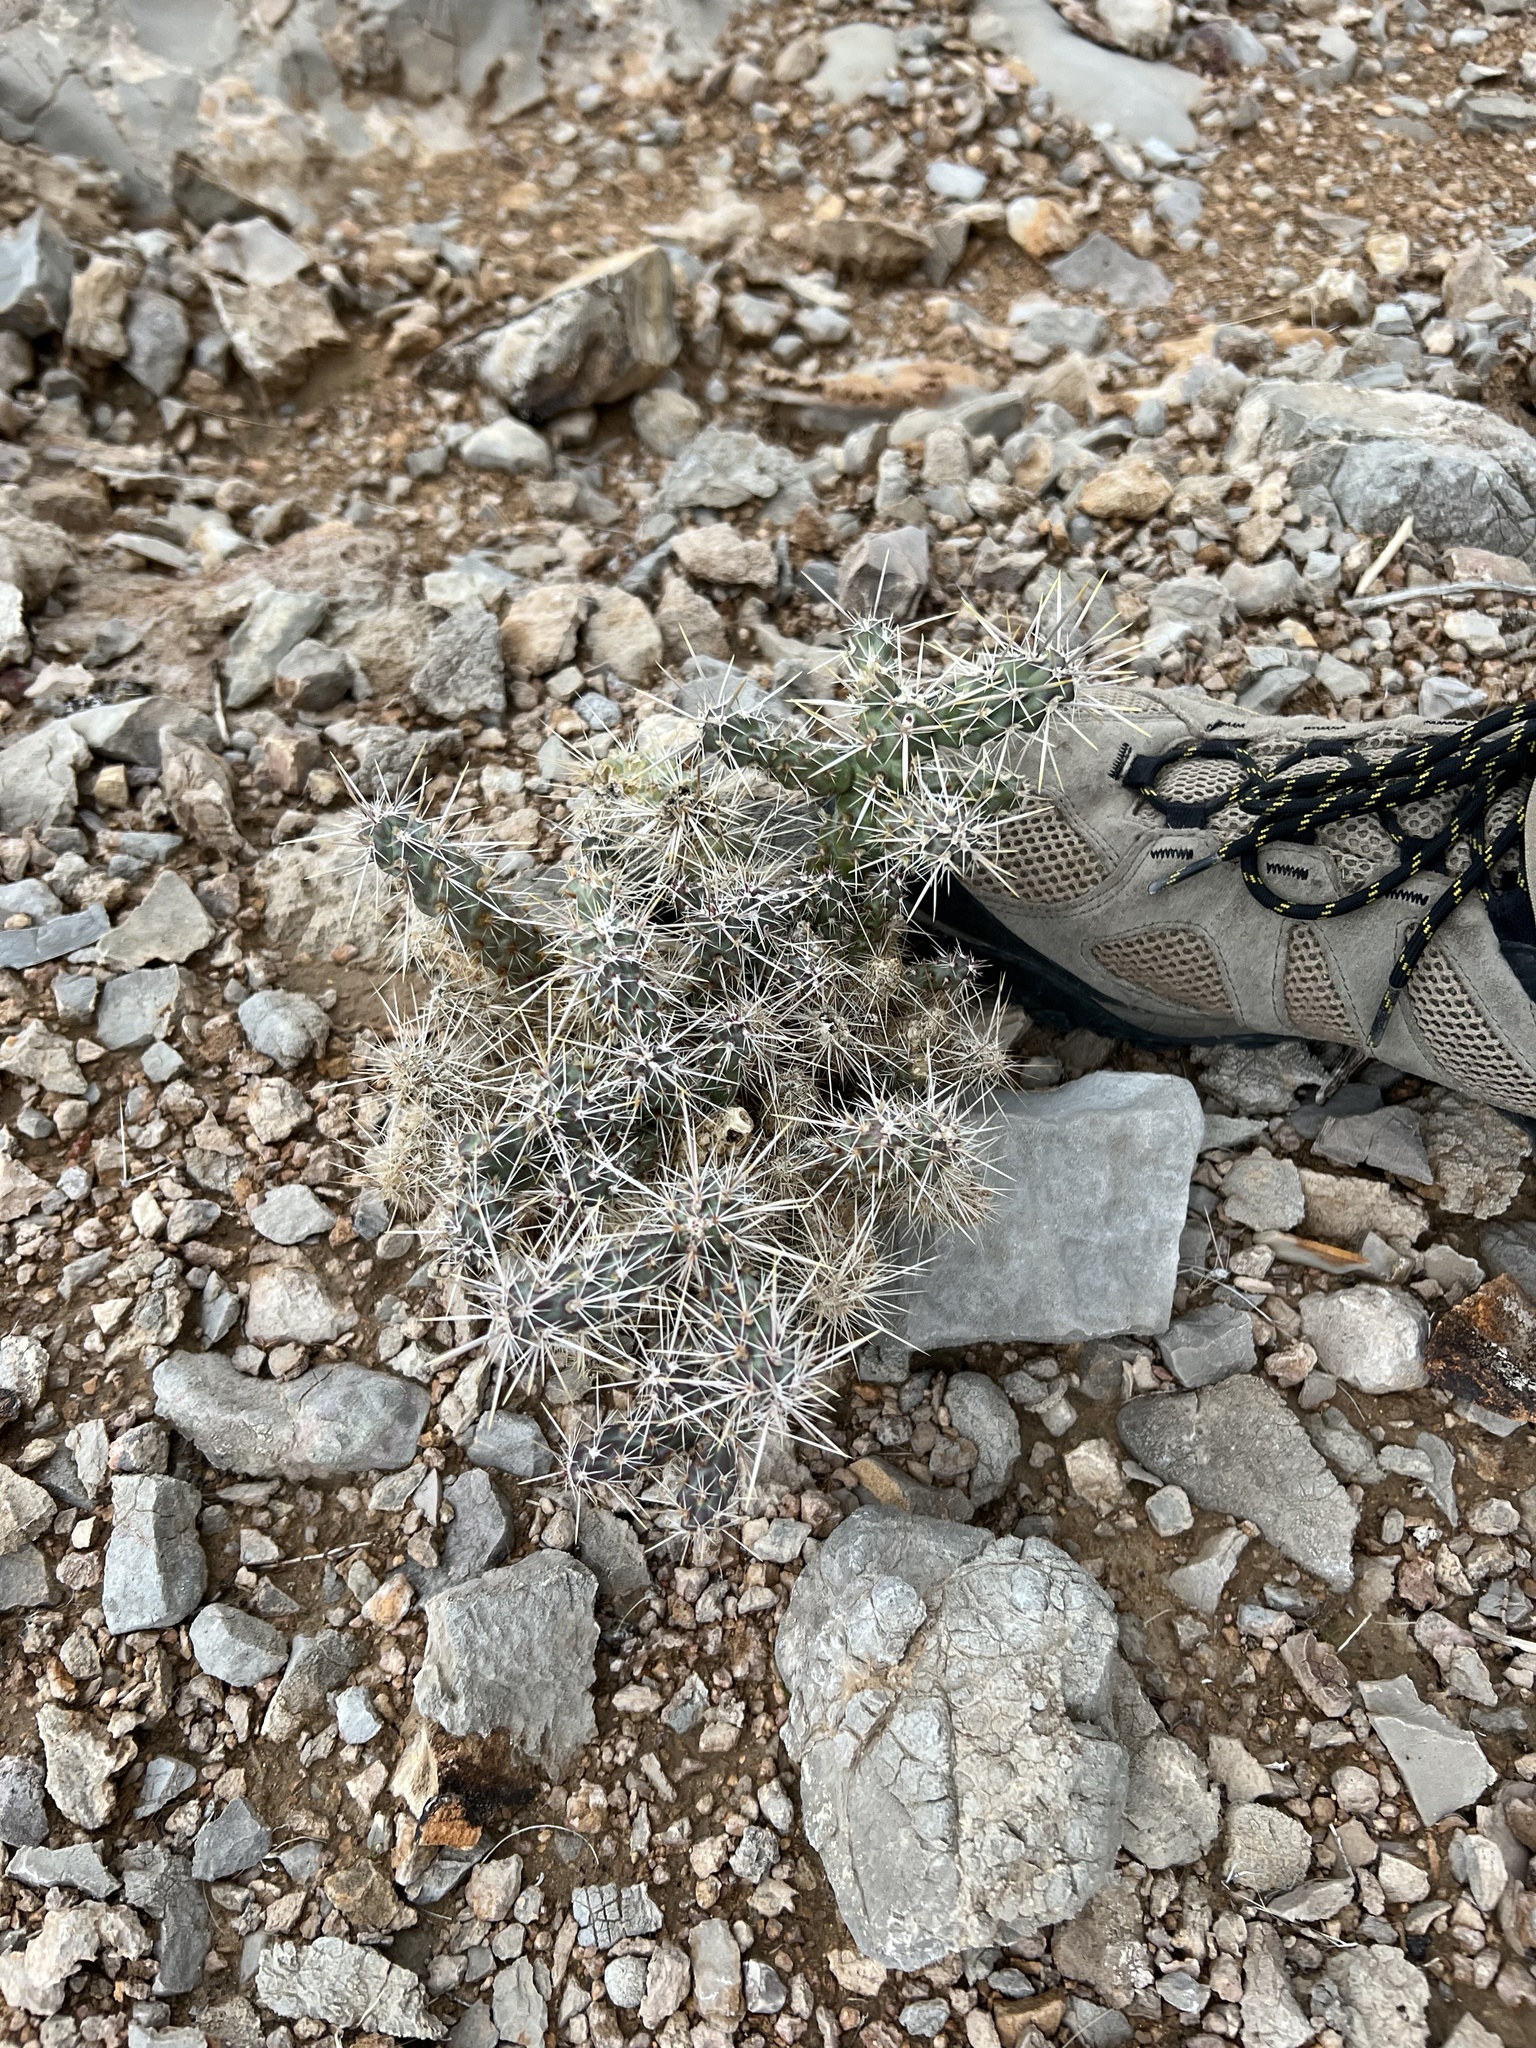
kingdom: Plantae
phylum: Tracheophyta
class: Magnoliopsida
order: Caryophyllales
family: Cactaceae
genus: Cylindropuntia
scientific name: Cylindropuntia whipplei
